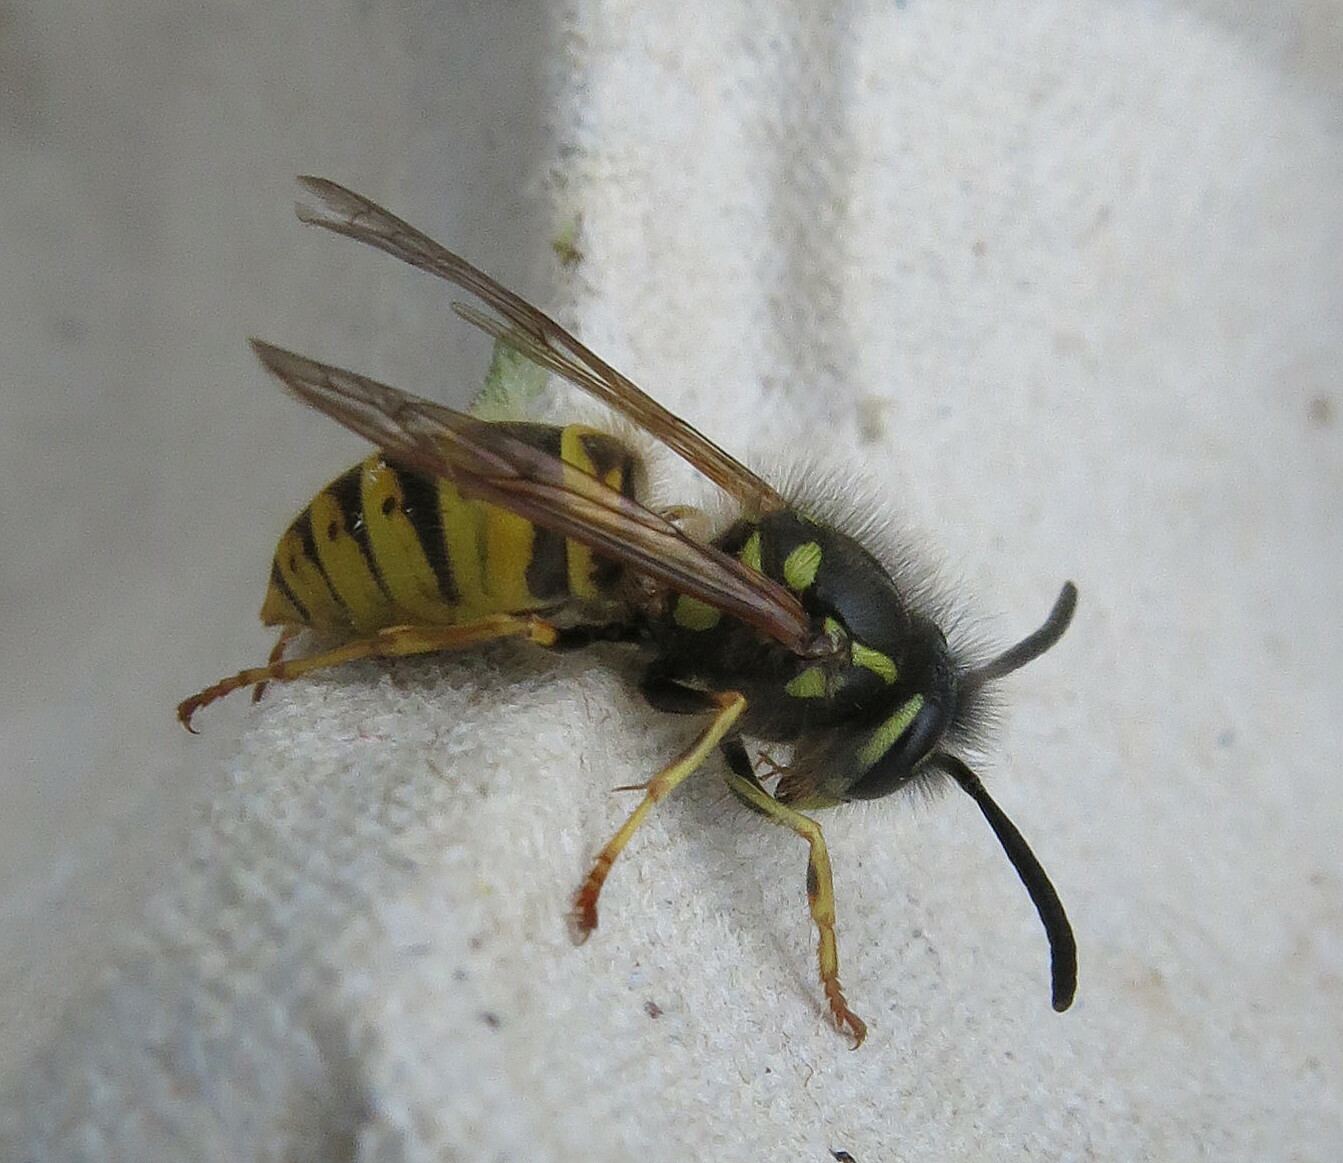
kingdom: Animalia
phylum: Arthropoda
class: Insecta
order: Hymenoptera
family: Vespidae
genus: Vespula
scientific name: Vespula vulgaris
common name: Common wasp
